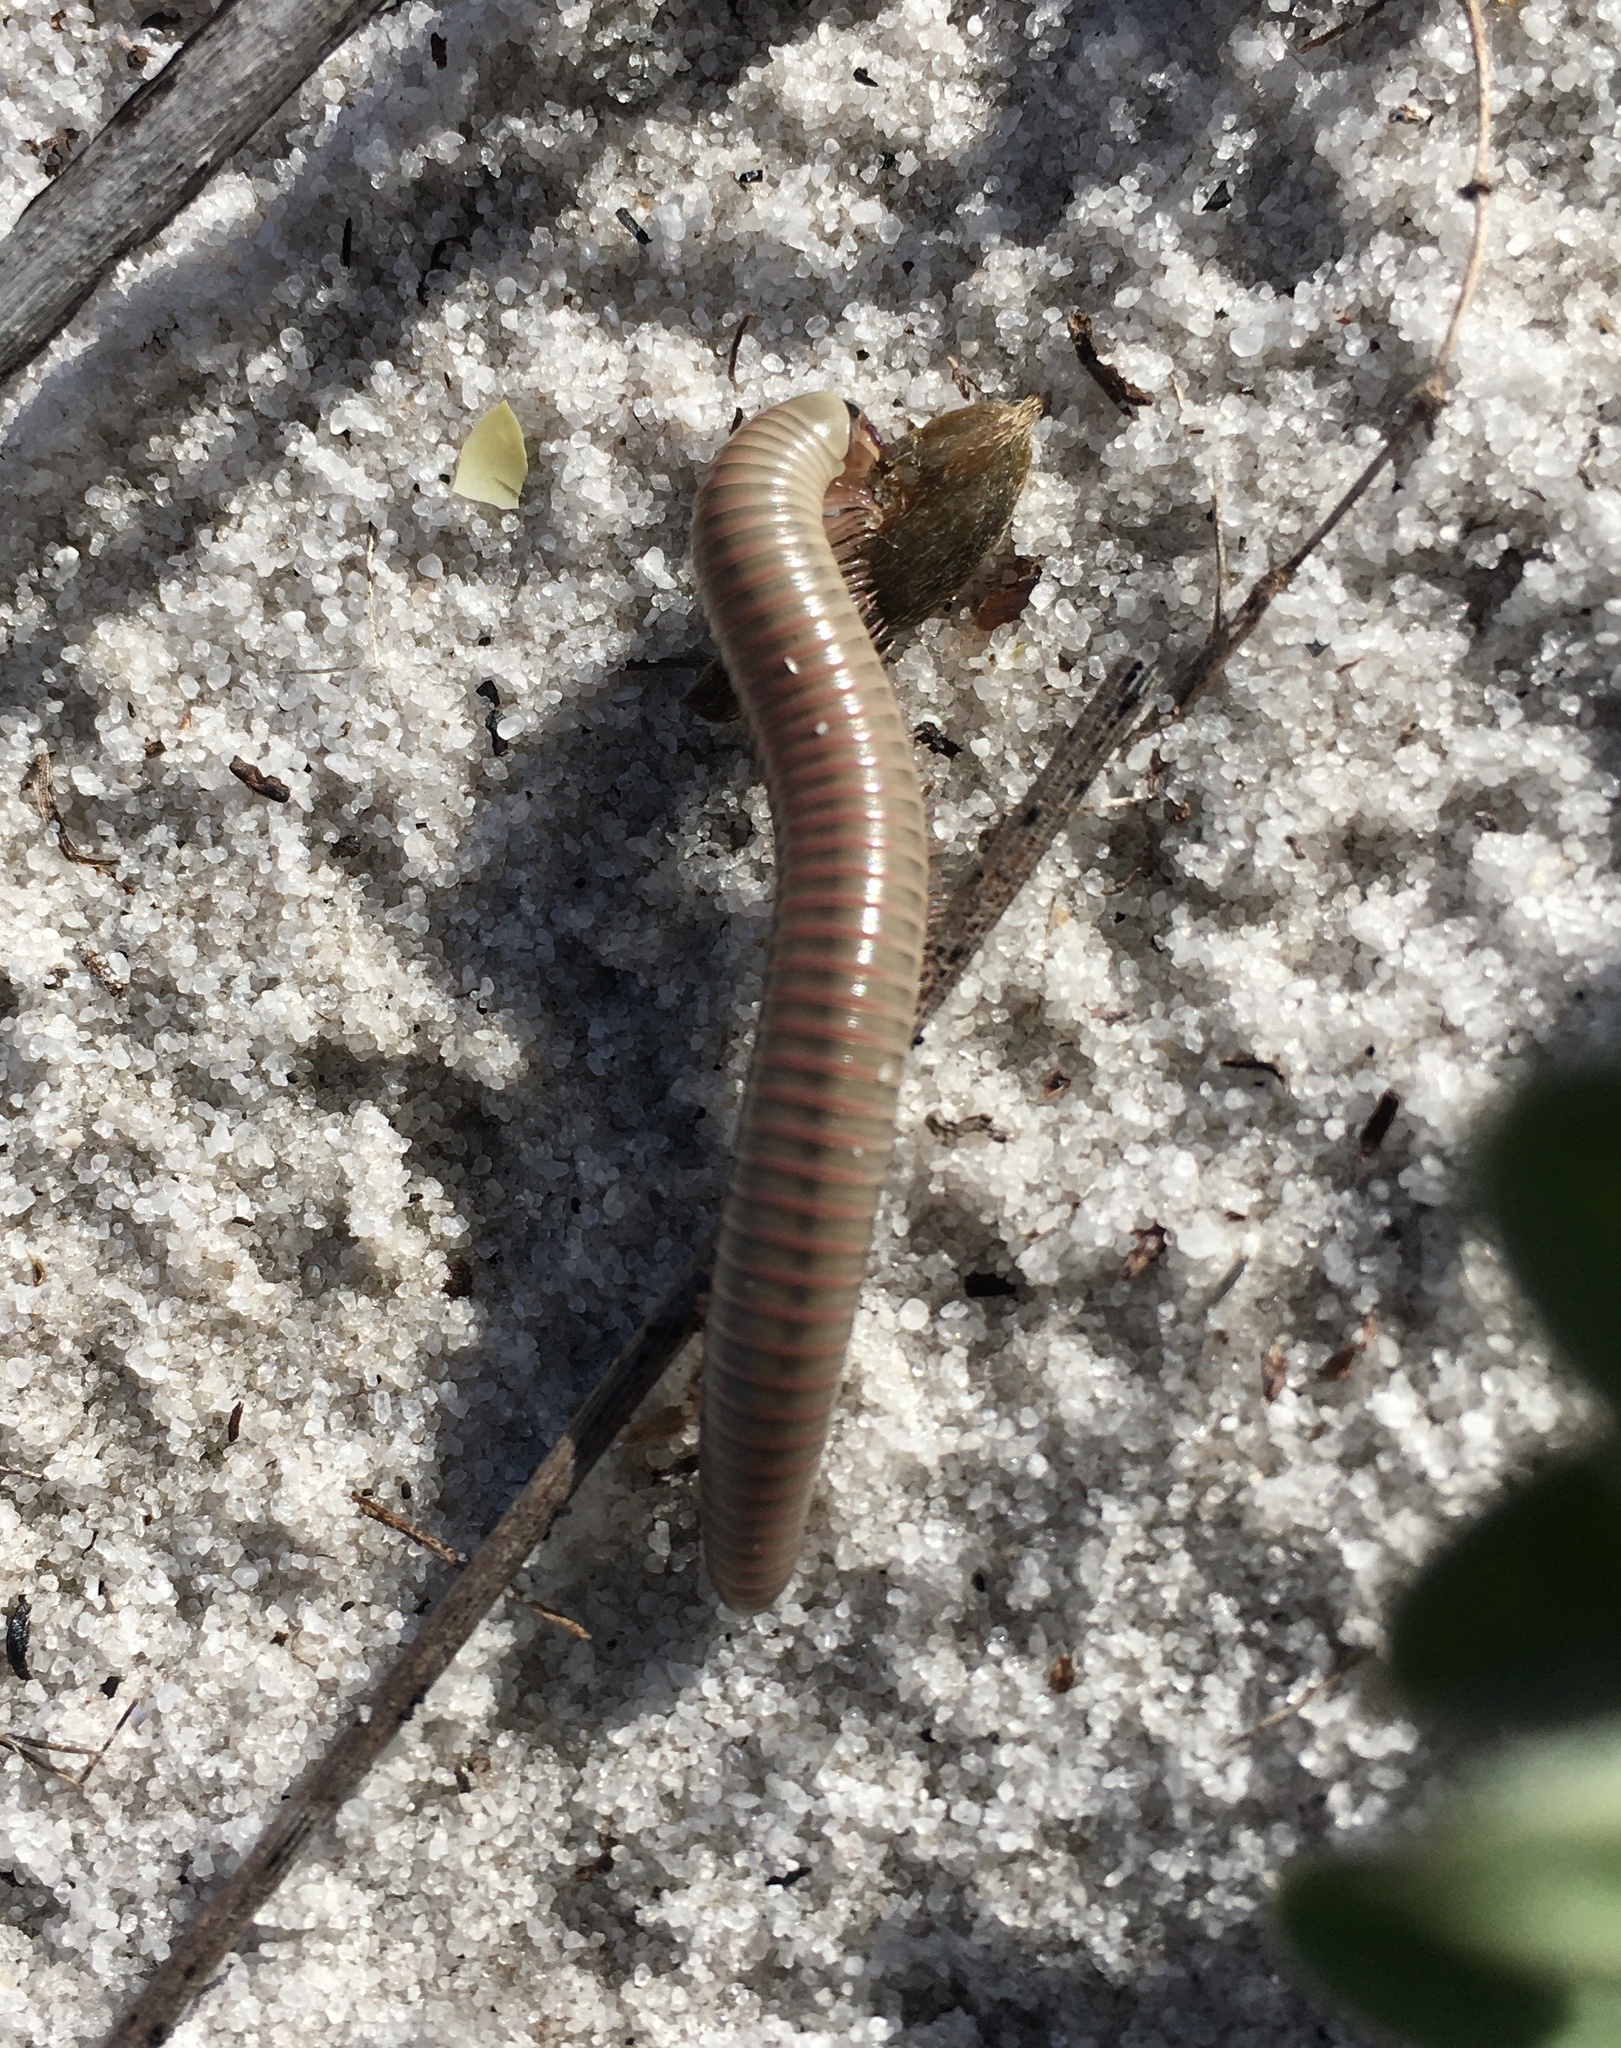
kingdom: Animalia
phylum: Arthropoda
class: Diplopoda
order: Spirobolida
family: Spirobolidae
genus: Chicobolus
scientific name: Chicobolus spinigerus
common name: Florida ivory millipede
